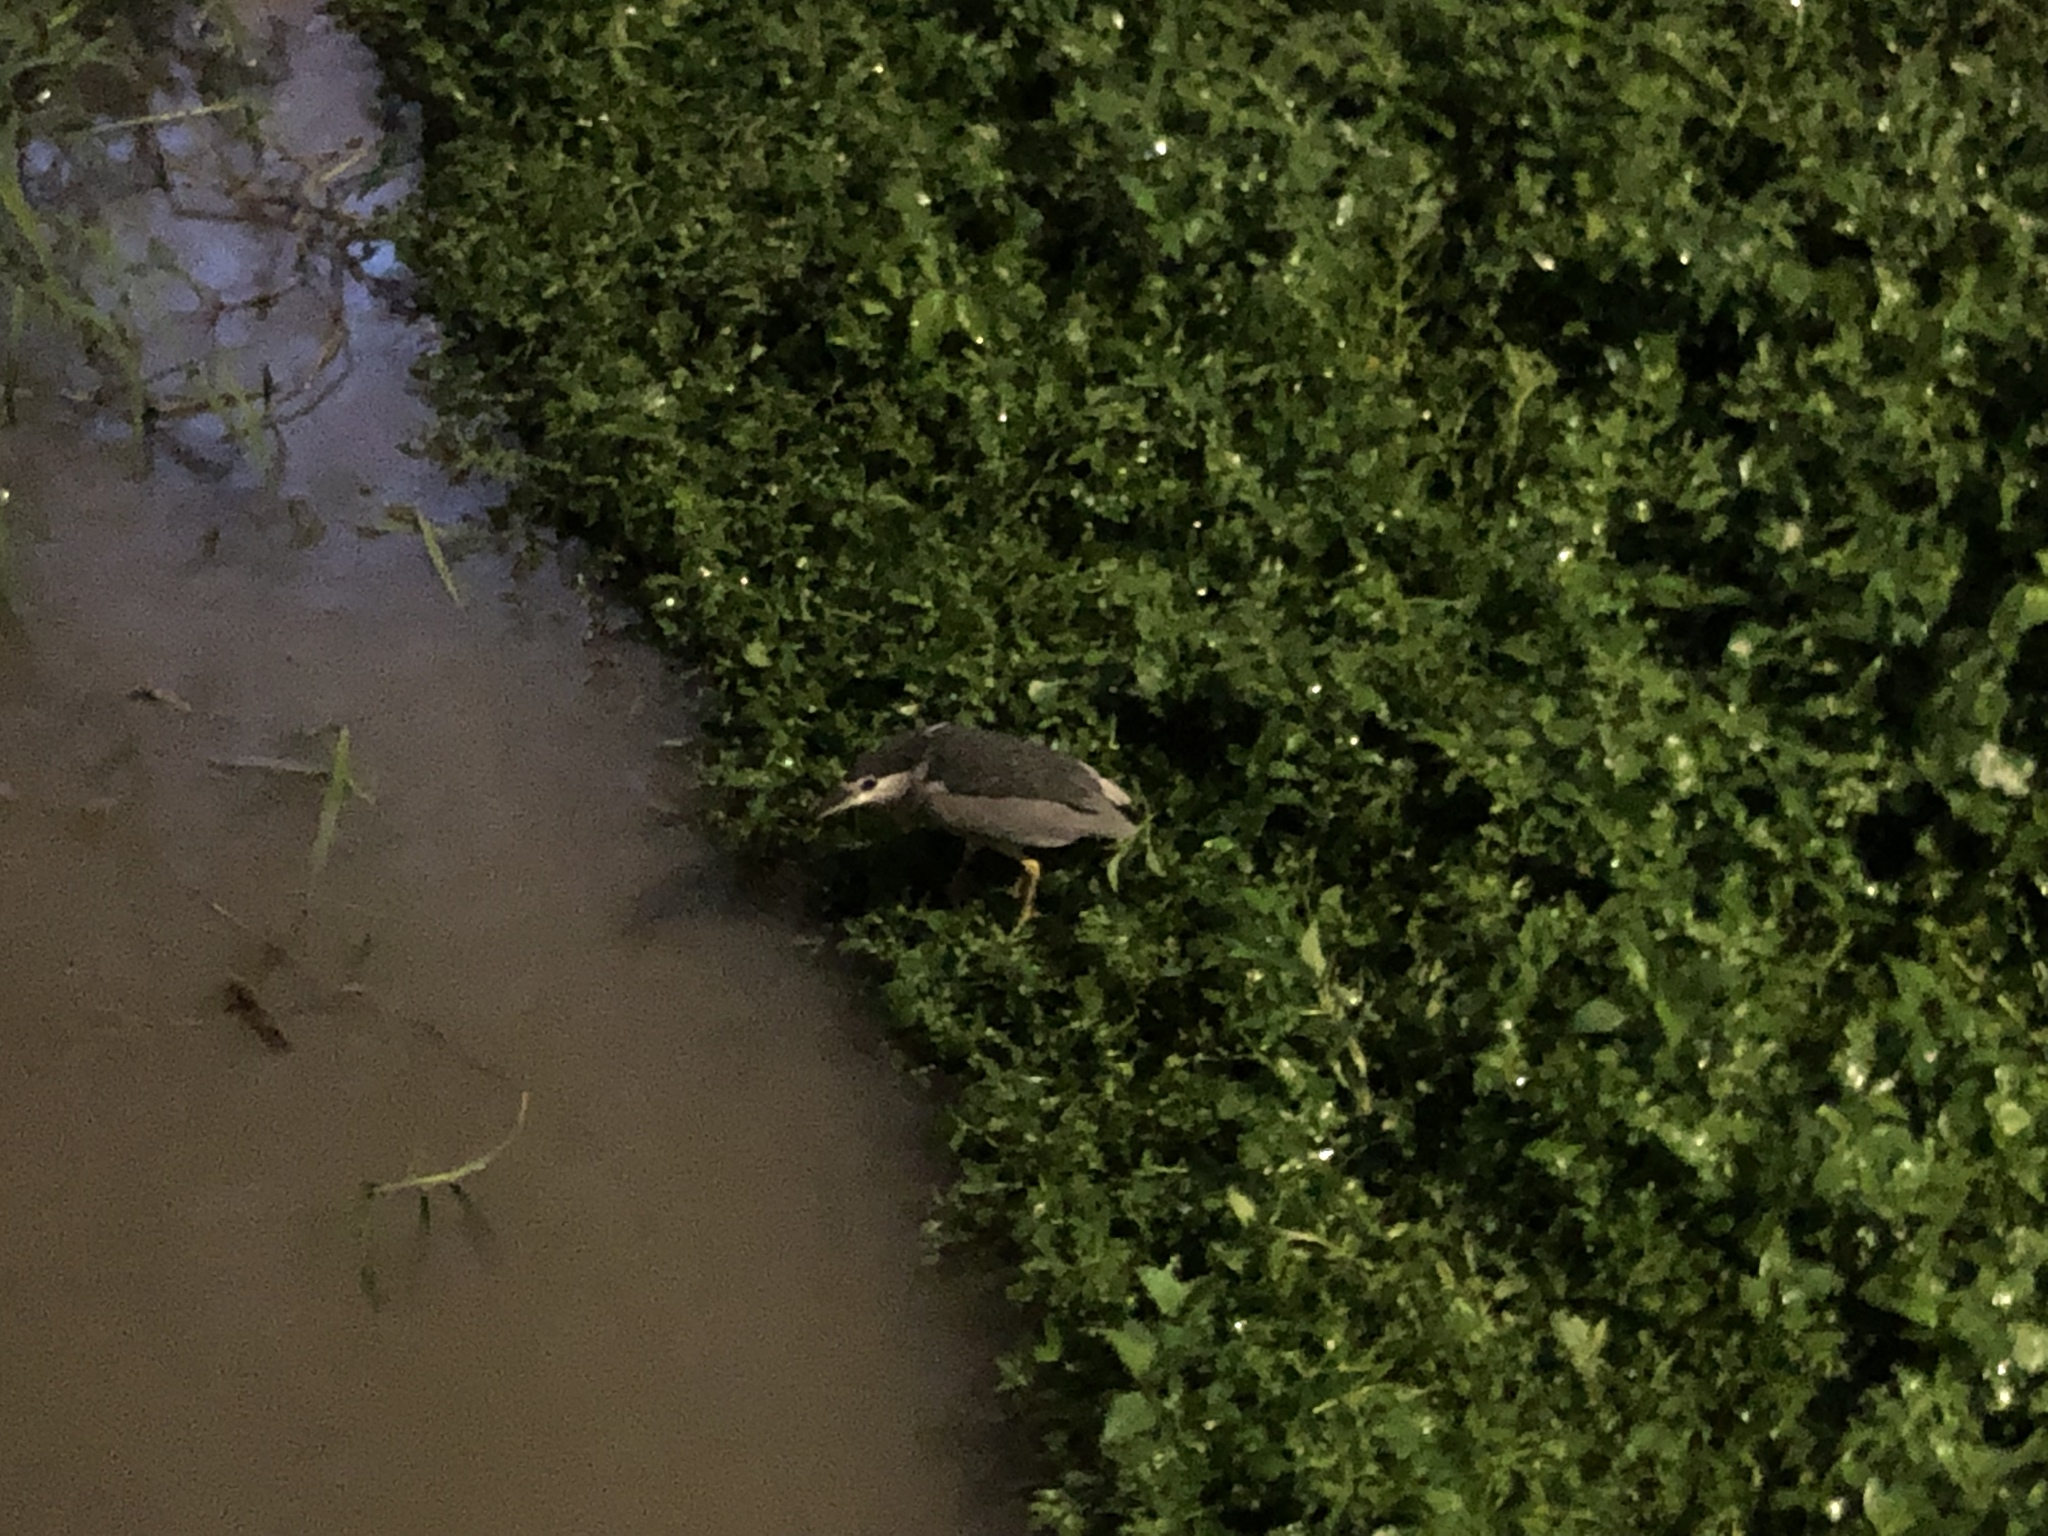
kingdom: Animalia
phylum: Chordata
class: Aves
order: Pelecaniformes
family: Ardeidae
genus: Nycticorax
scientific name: Nycticorax nycticorax
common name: Black-crowned night heron
